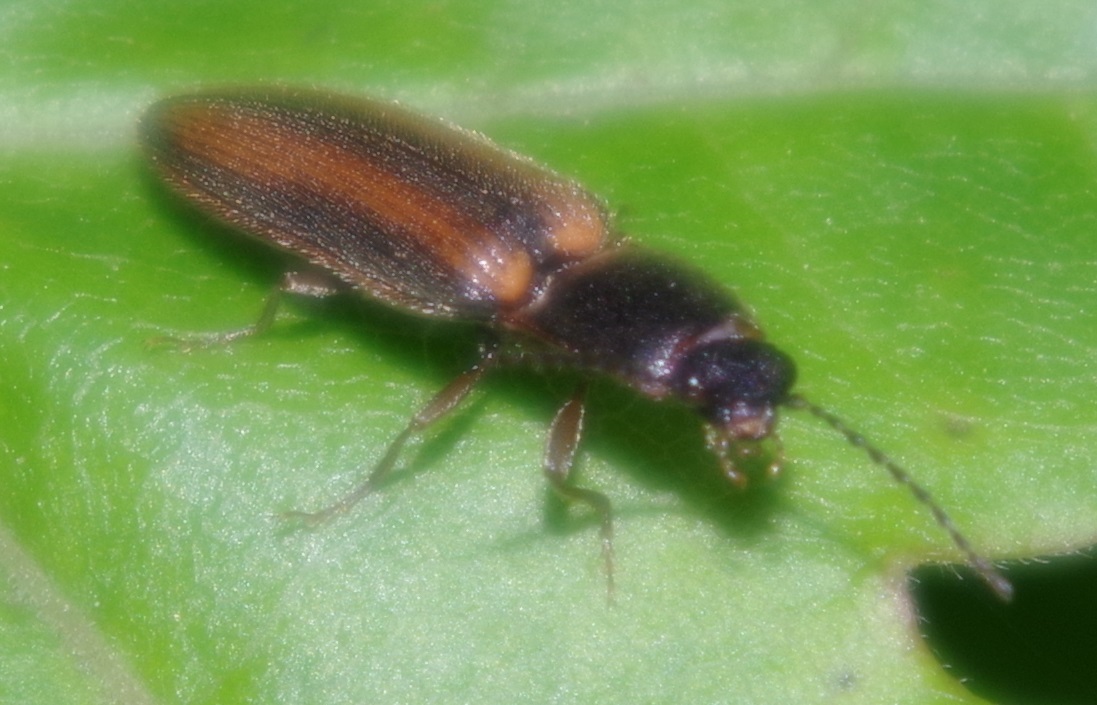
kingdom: Animalia
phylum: Arthropoda
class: Insecta
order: Coleoptera
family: Elateridae
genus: Athous
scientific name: Athous vittatus
